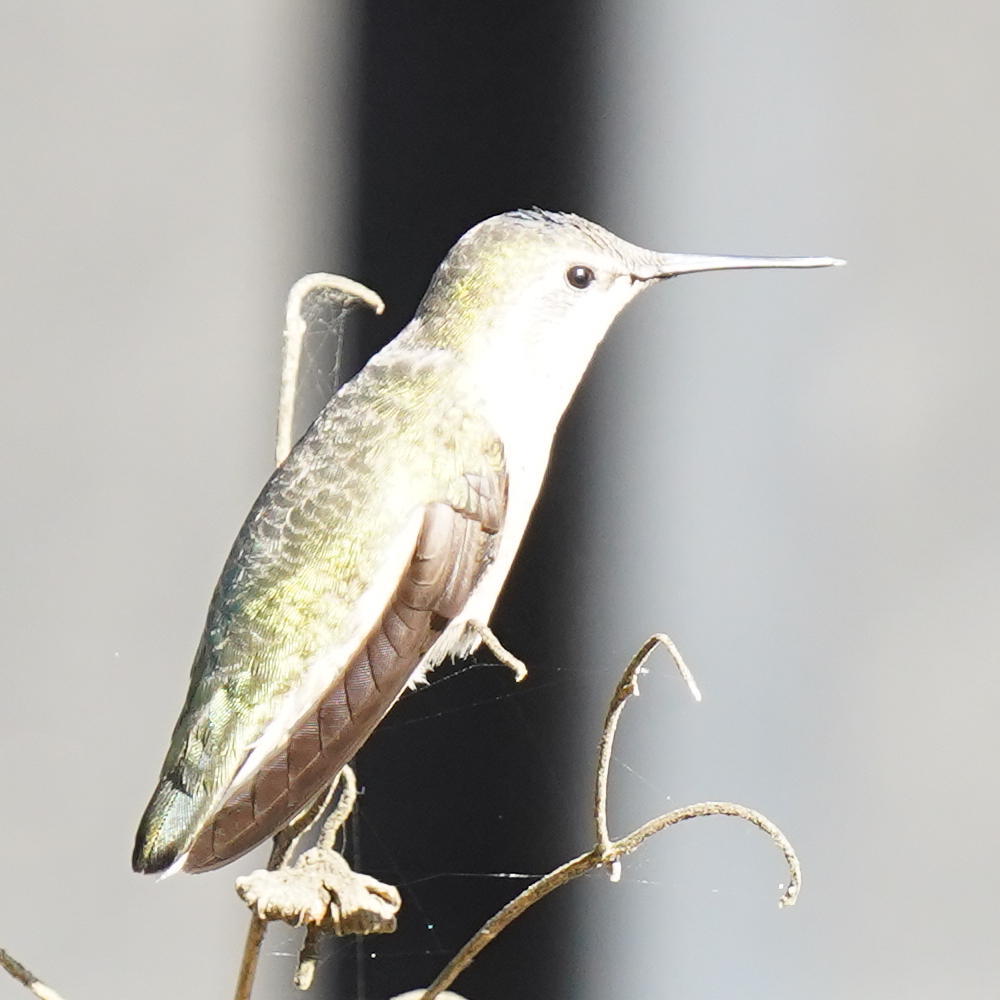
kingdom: Animalia
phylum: Chordata
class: Aves
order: Apodiformes
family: Trochilidae
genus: Calypte
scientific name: Calypte anna
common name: Anna's hummingbird
